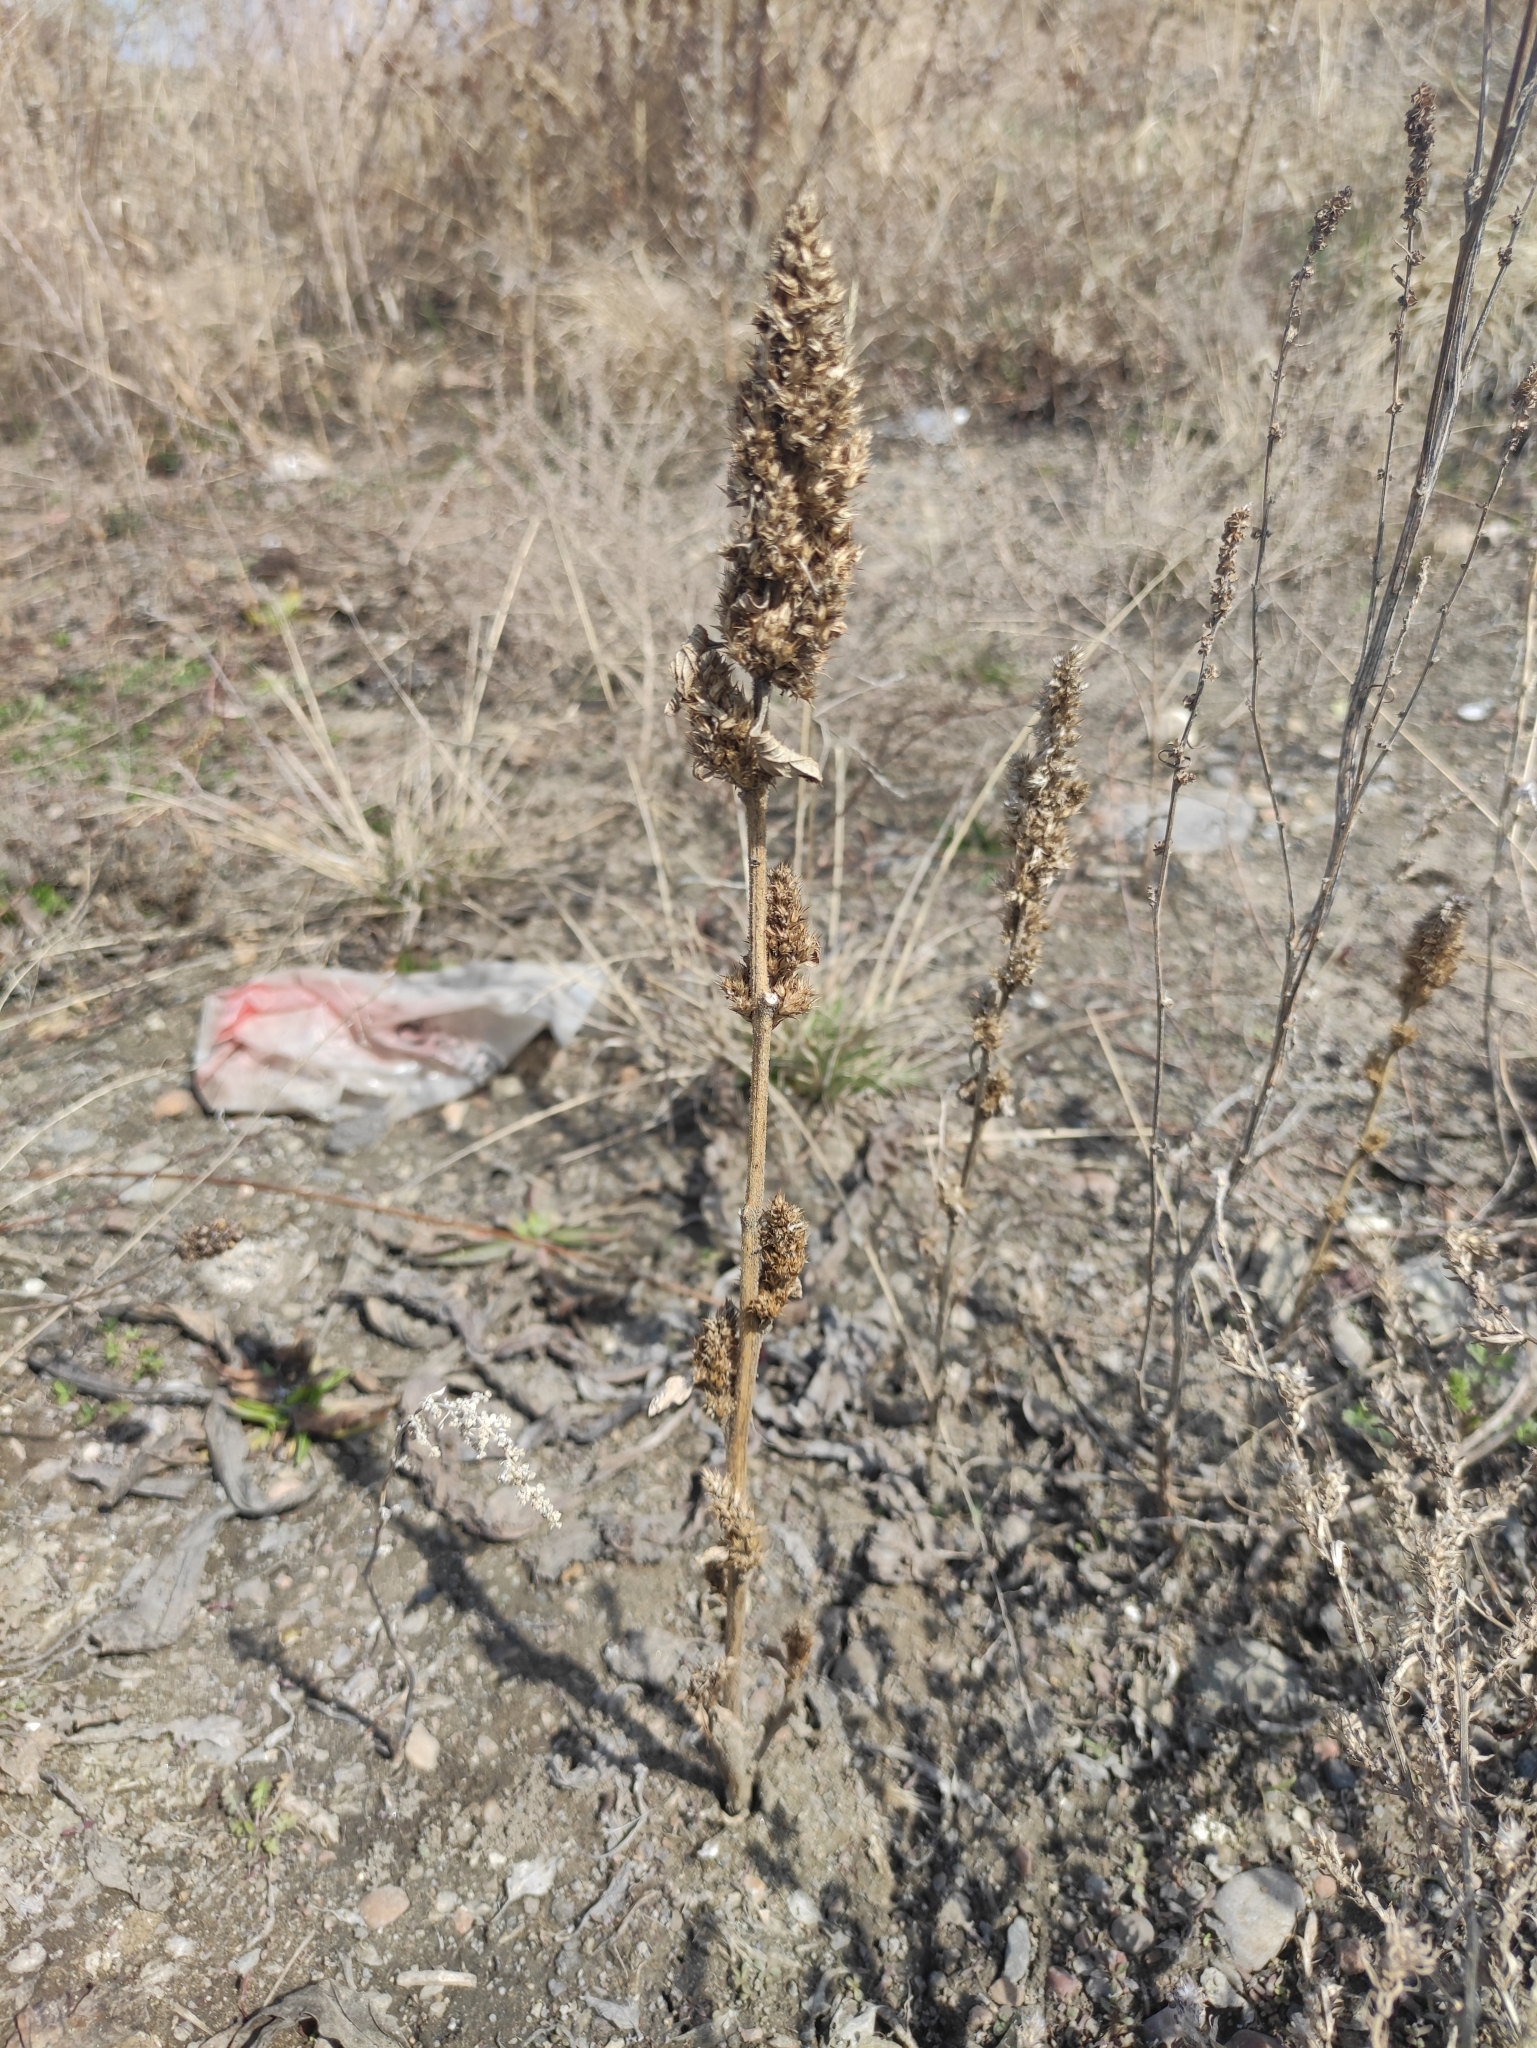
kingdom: Plantae
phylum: Tracheophyta
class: Magnoliopsida
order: Caryophyllales
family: Amaranthaceae
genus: Amaranthus
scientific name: Amaranthus retroflexus
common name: Redroot amaranth
